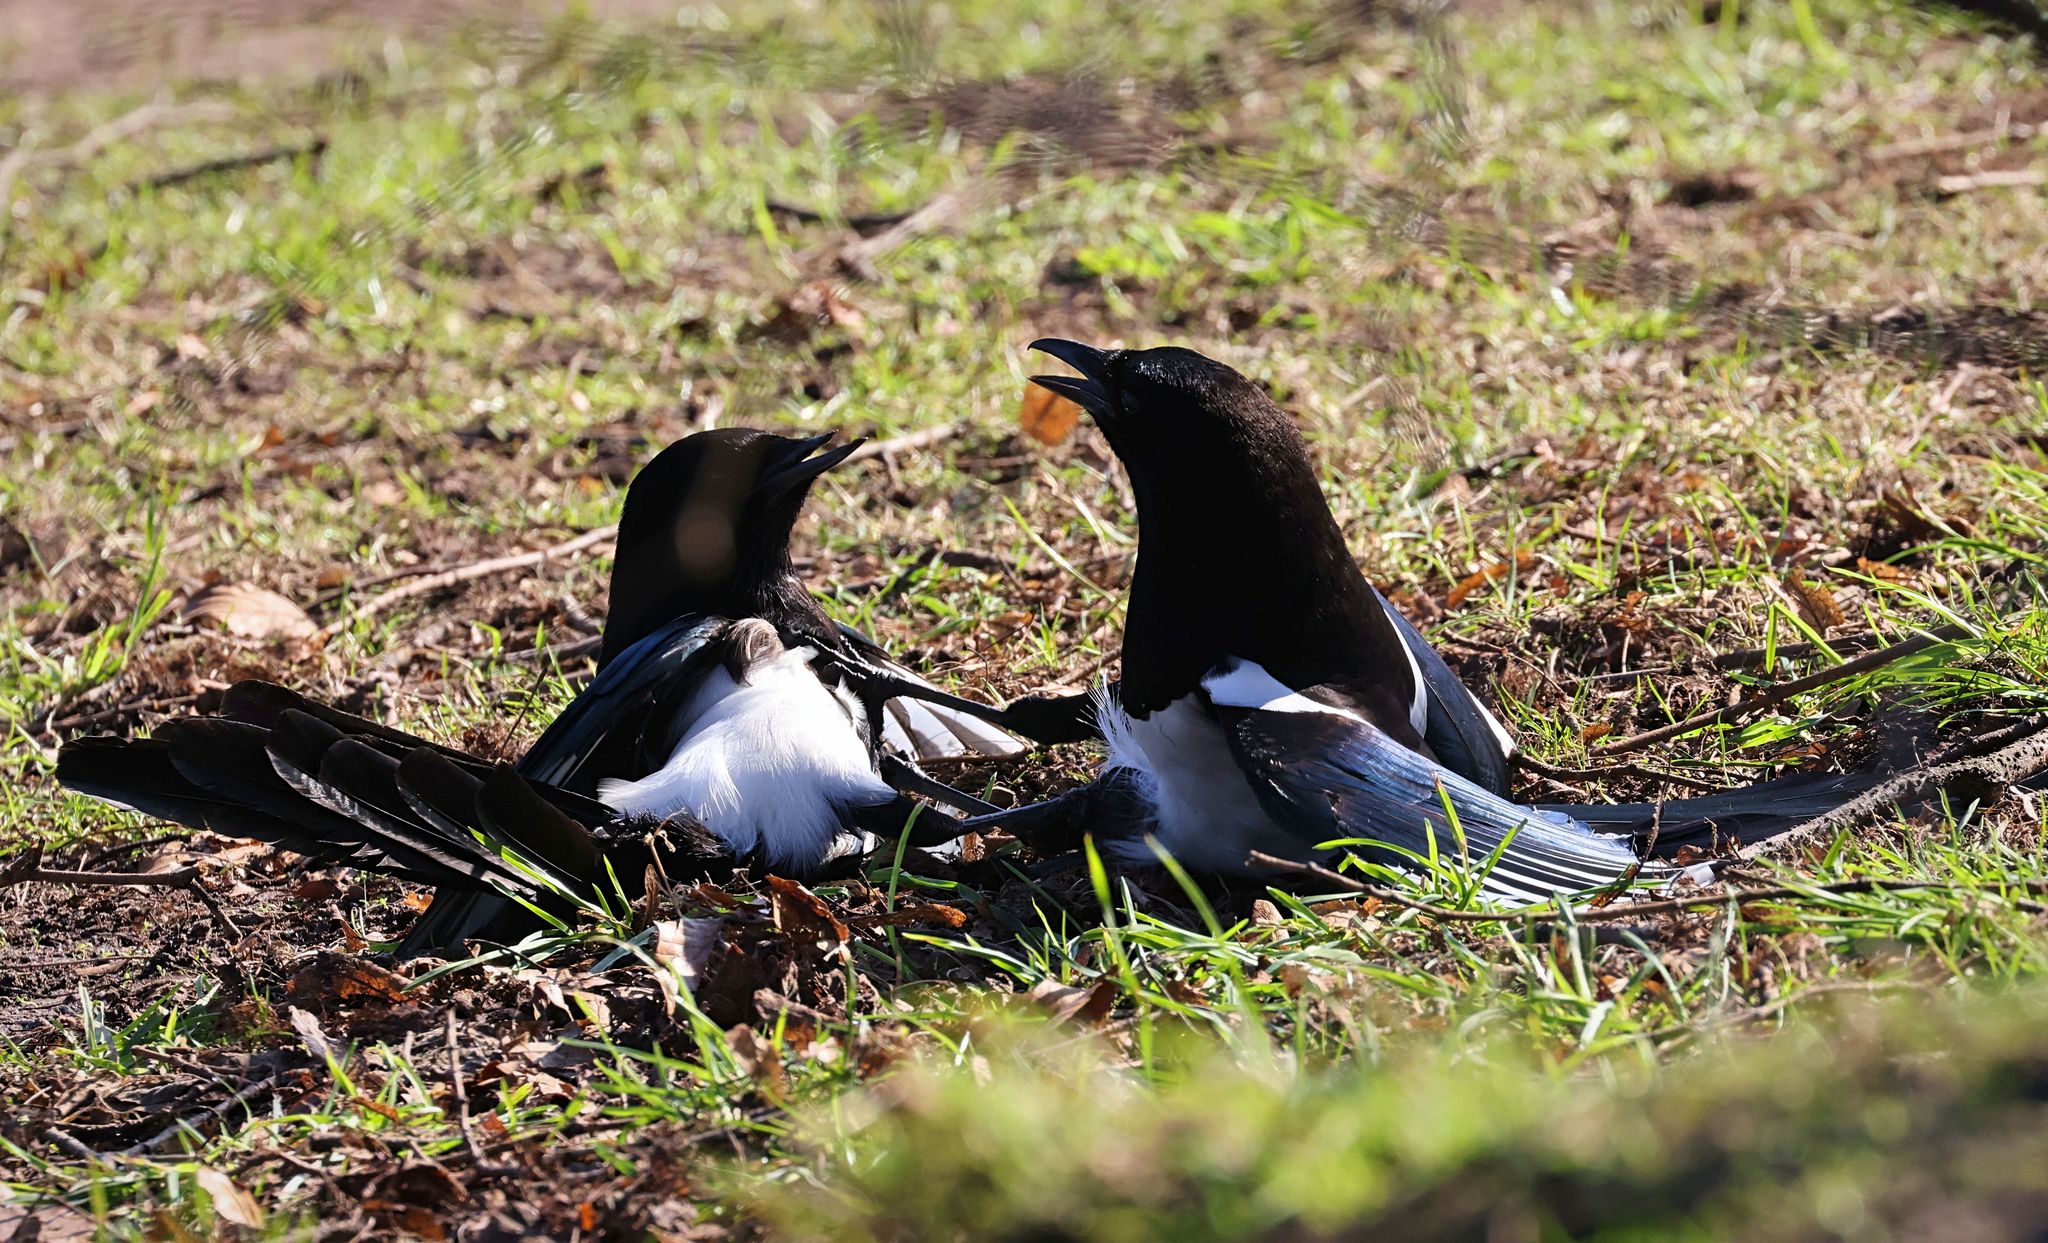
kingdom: Animalia
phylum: Chordata
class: Aves
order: Passeriformes
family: Corvidae
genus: Pica
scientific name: Pica pica
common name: Eurasian magpie
